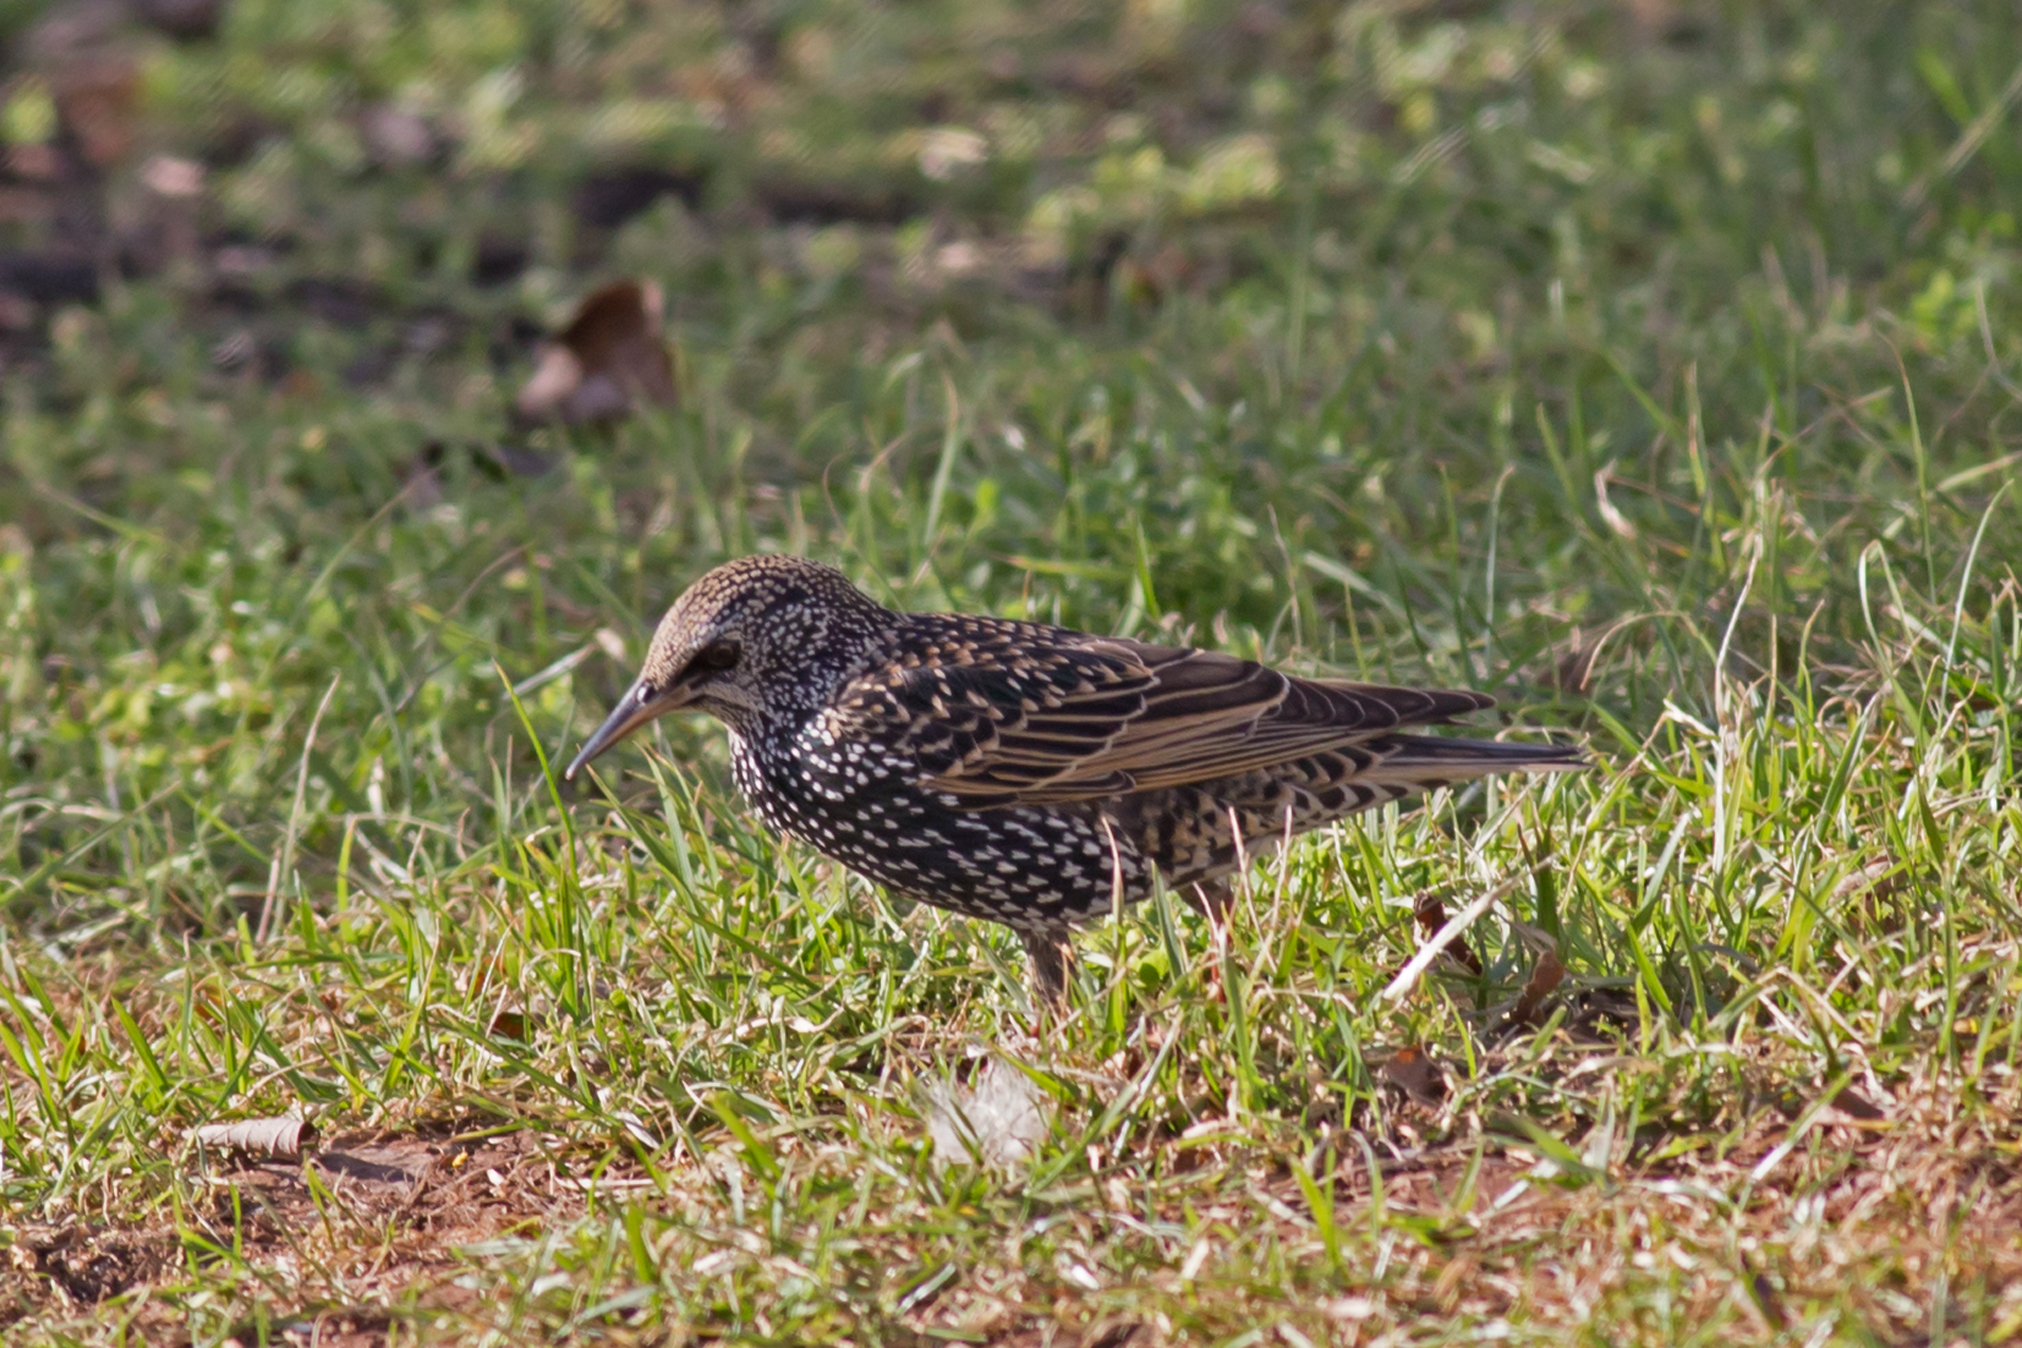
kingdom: Animalia
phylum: Chordata
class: Aves
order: Passeriformes
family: Sturnidae
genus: Sturnus
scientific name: Sturnus vulgaris
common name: Common starling
